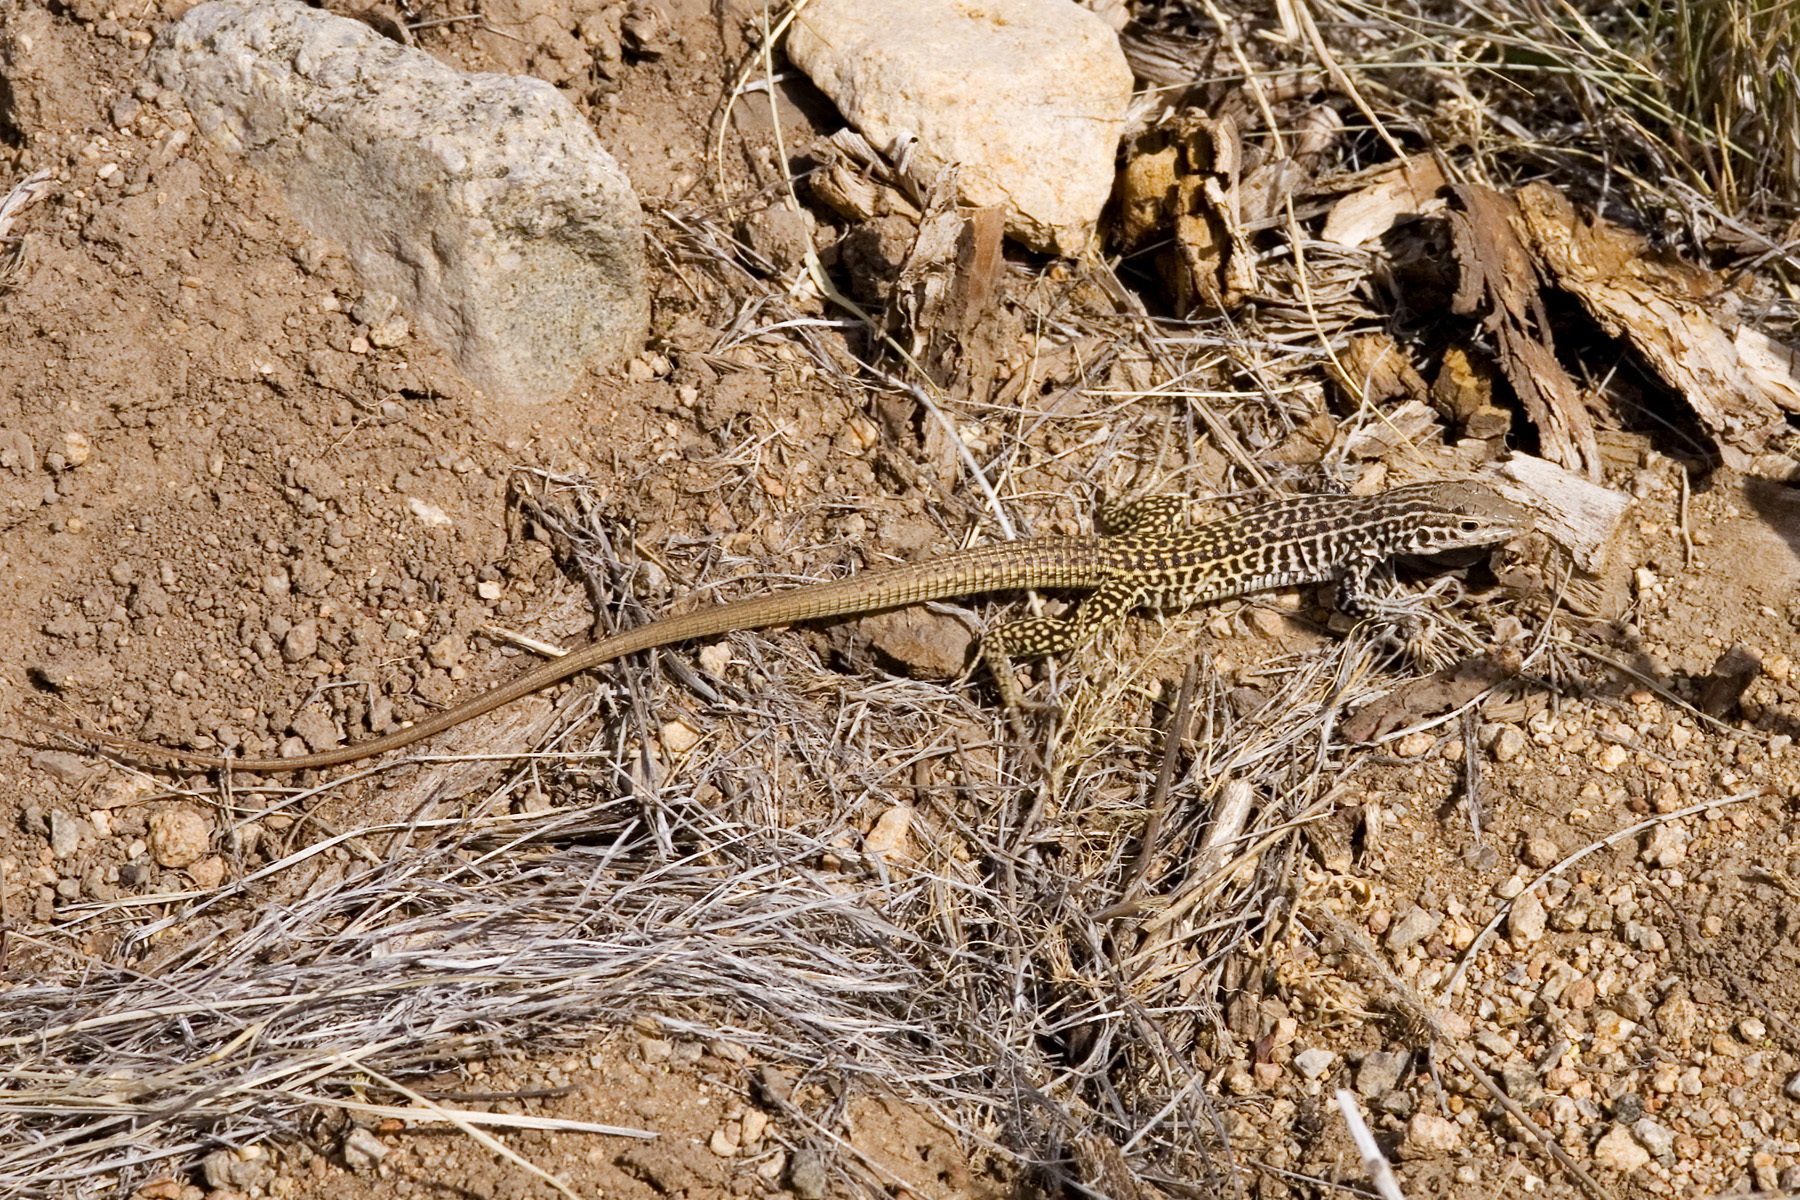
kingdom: Animalia
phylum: Chordata
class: Squamata
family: Teiidae
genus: Aspidoscelis
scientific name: Aspidoscelis tesselatus
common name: Common checkered whiptail [tesselata]
